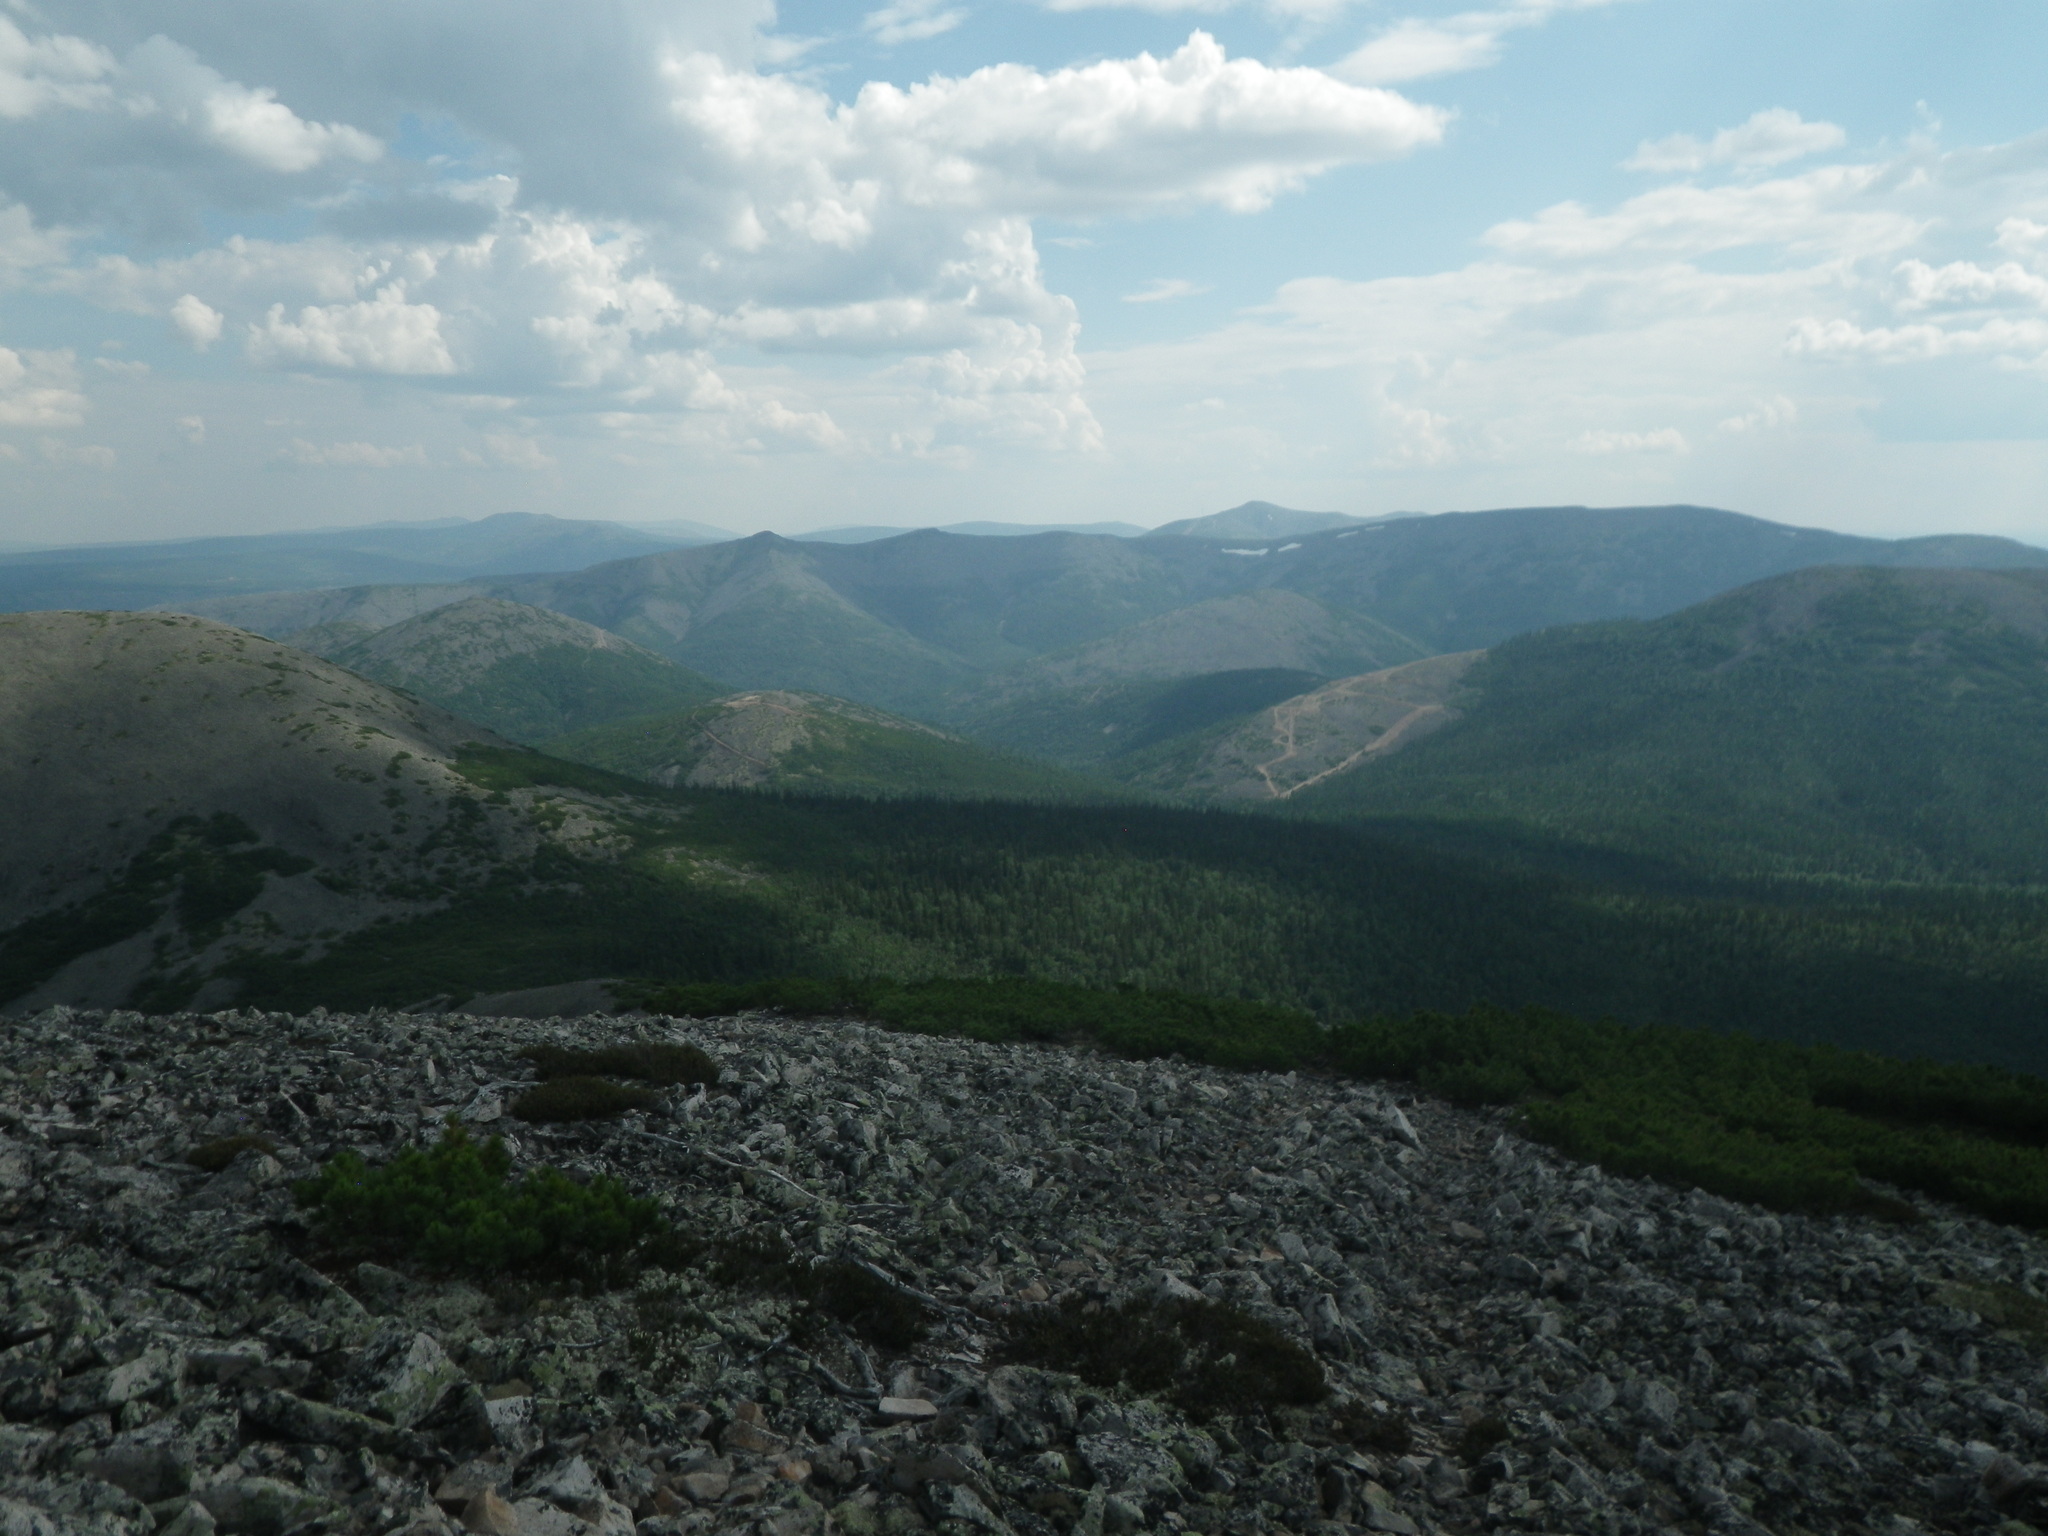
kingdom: Plantae
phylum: Tracheophyta
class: Pinopsida
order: Pinales
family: Pinaceae
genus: Pinus
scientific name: Pinus pumila
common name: Dwarf siberian pine
